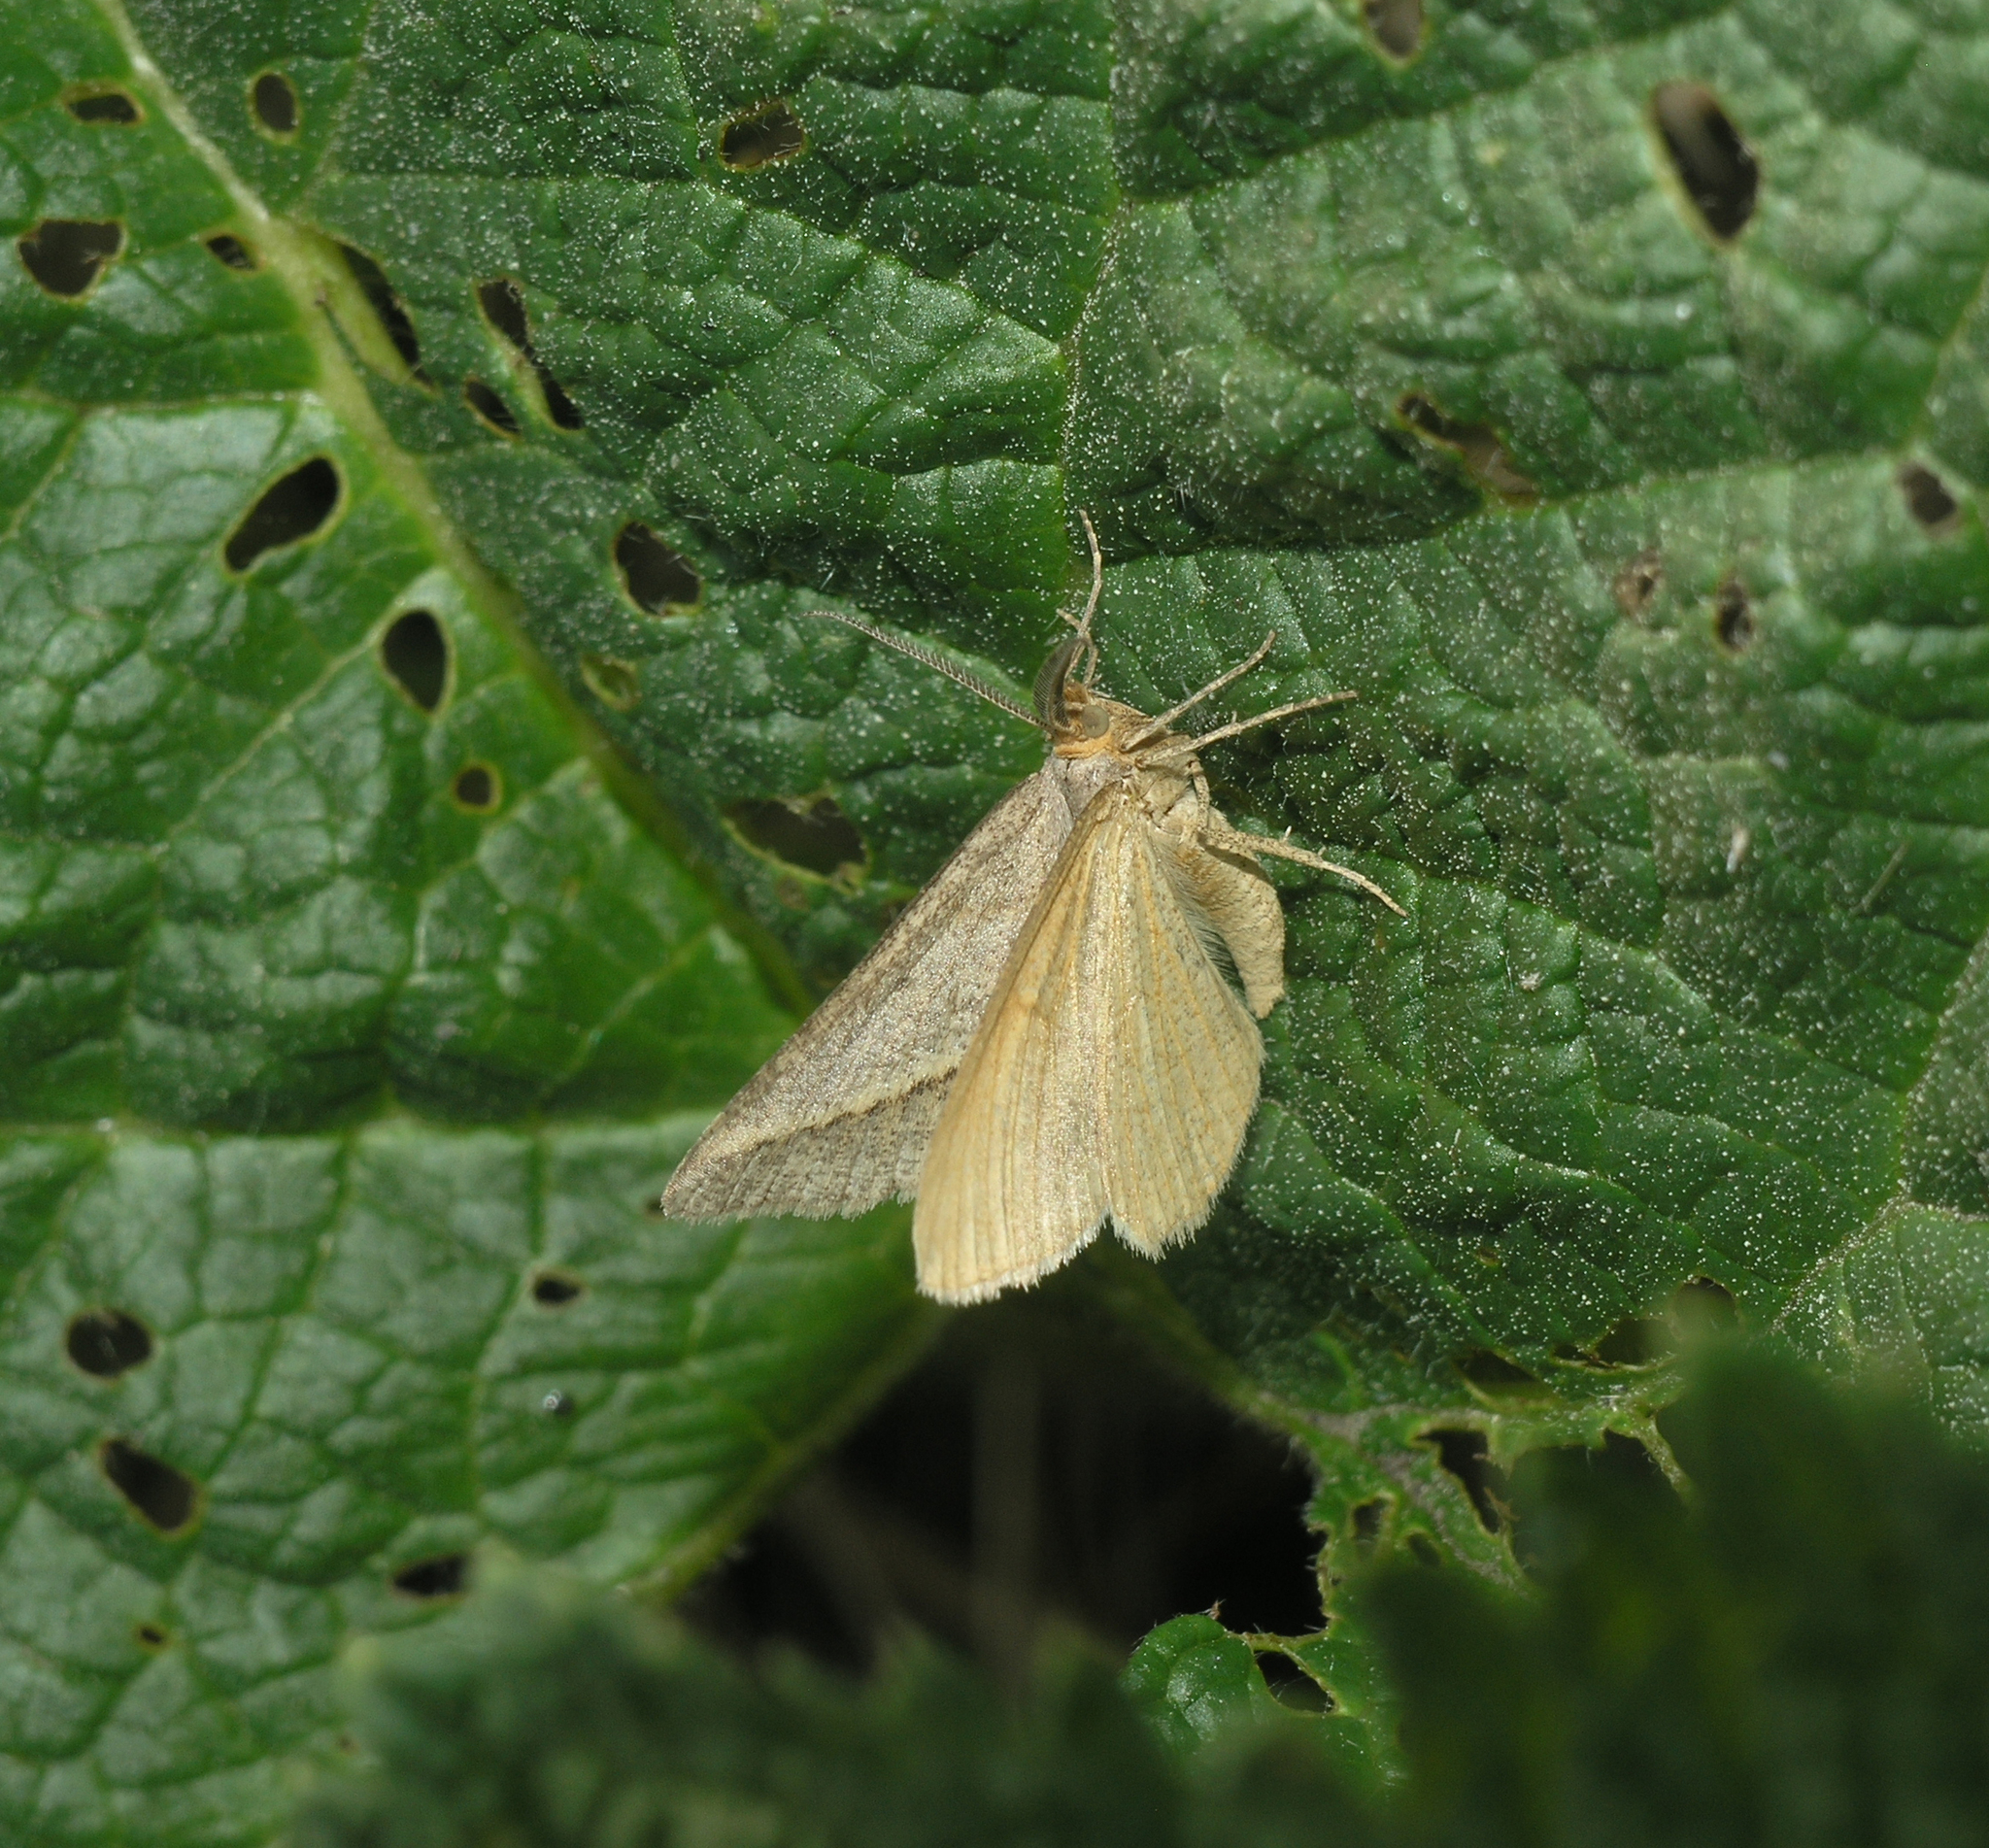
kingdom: Animalia
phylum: Arthropoda
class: Insecta
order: Lepidoptera
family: Geometridae
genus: Tephrina
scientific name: Tephrina arenacearia
